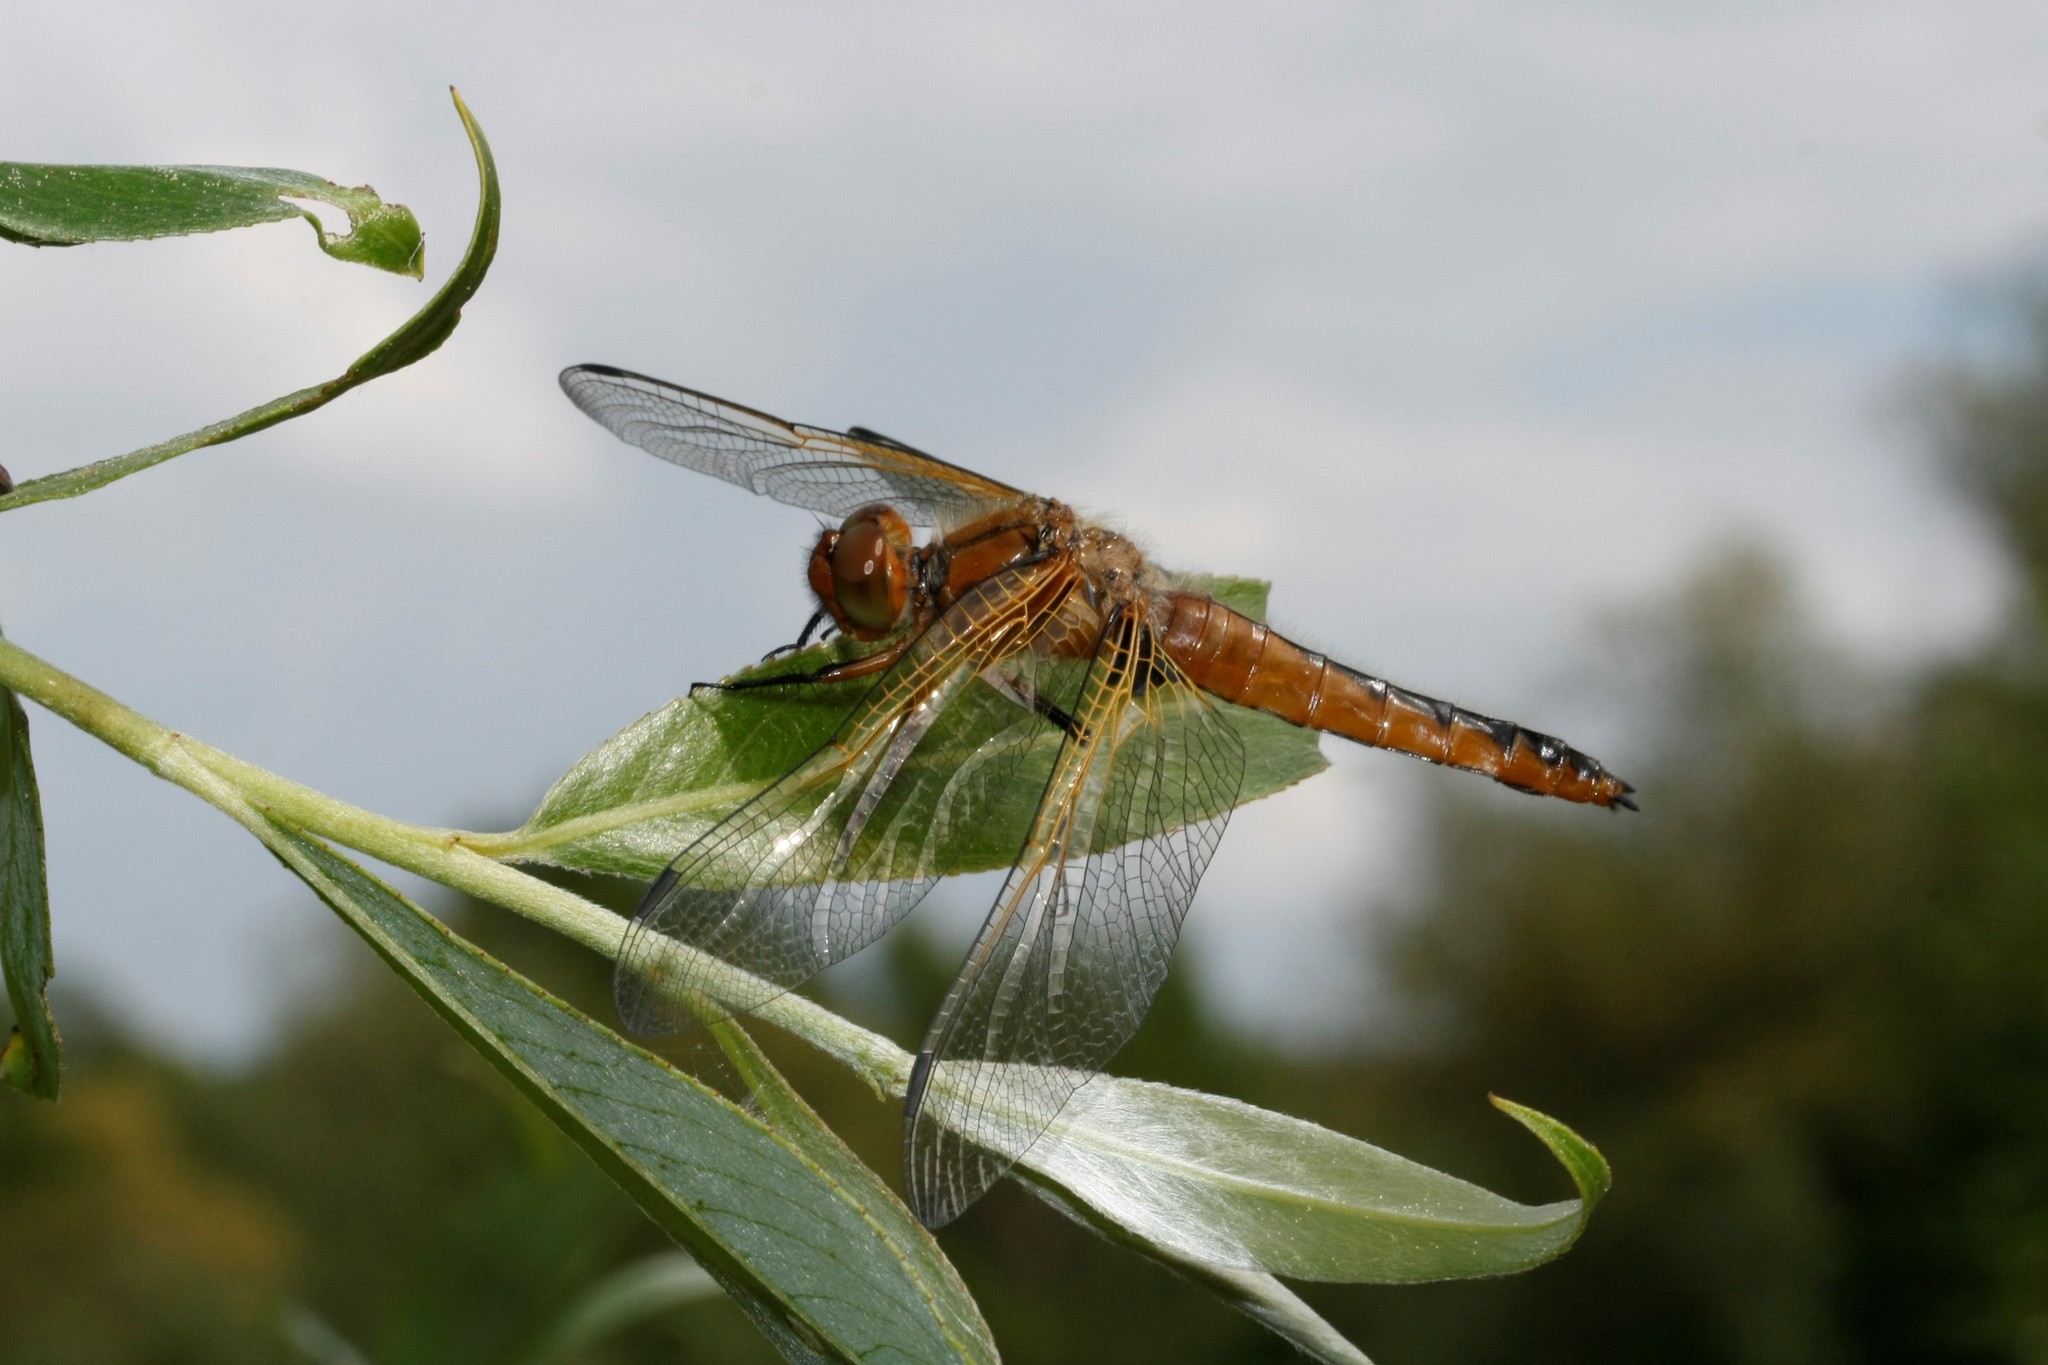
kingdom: Animalia
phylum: Arthropoda
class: Insecta
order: Odonata
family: Libellulidae
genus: Libellula
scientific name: Libellula fulva
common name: Blue chaser
